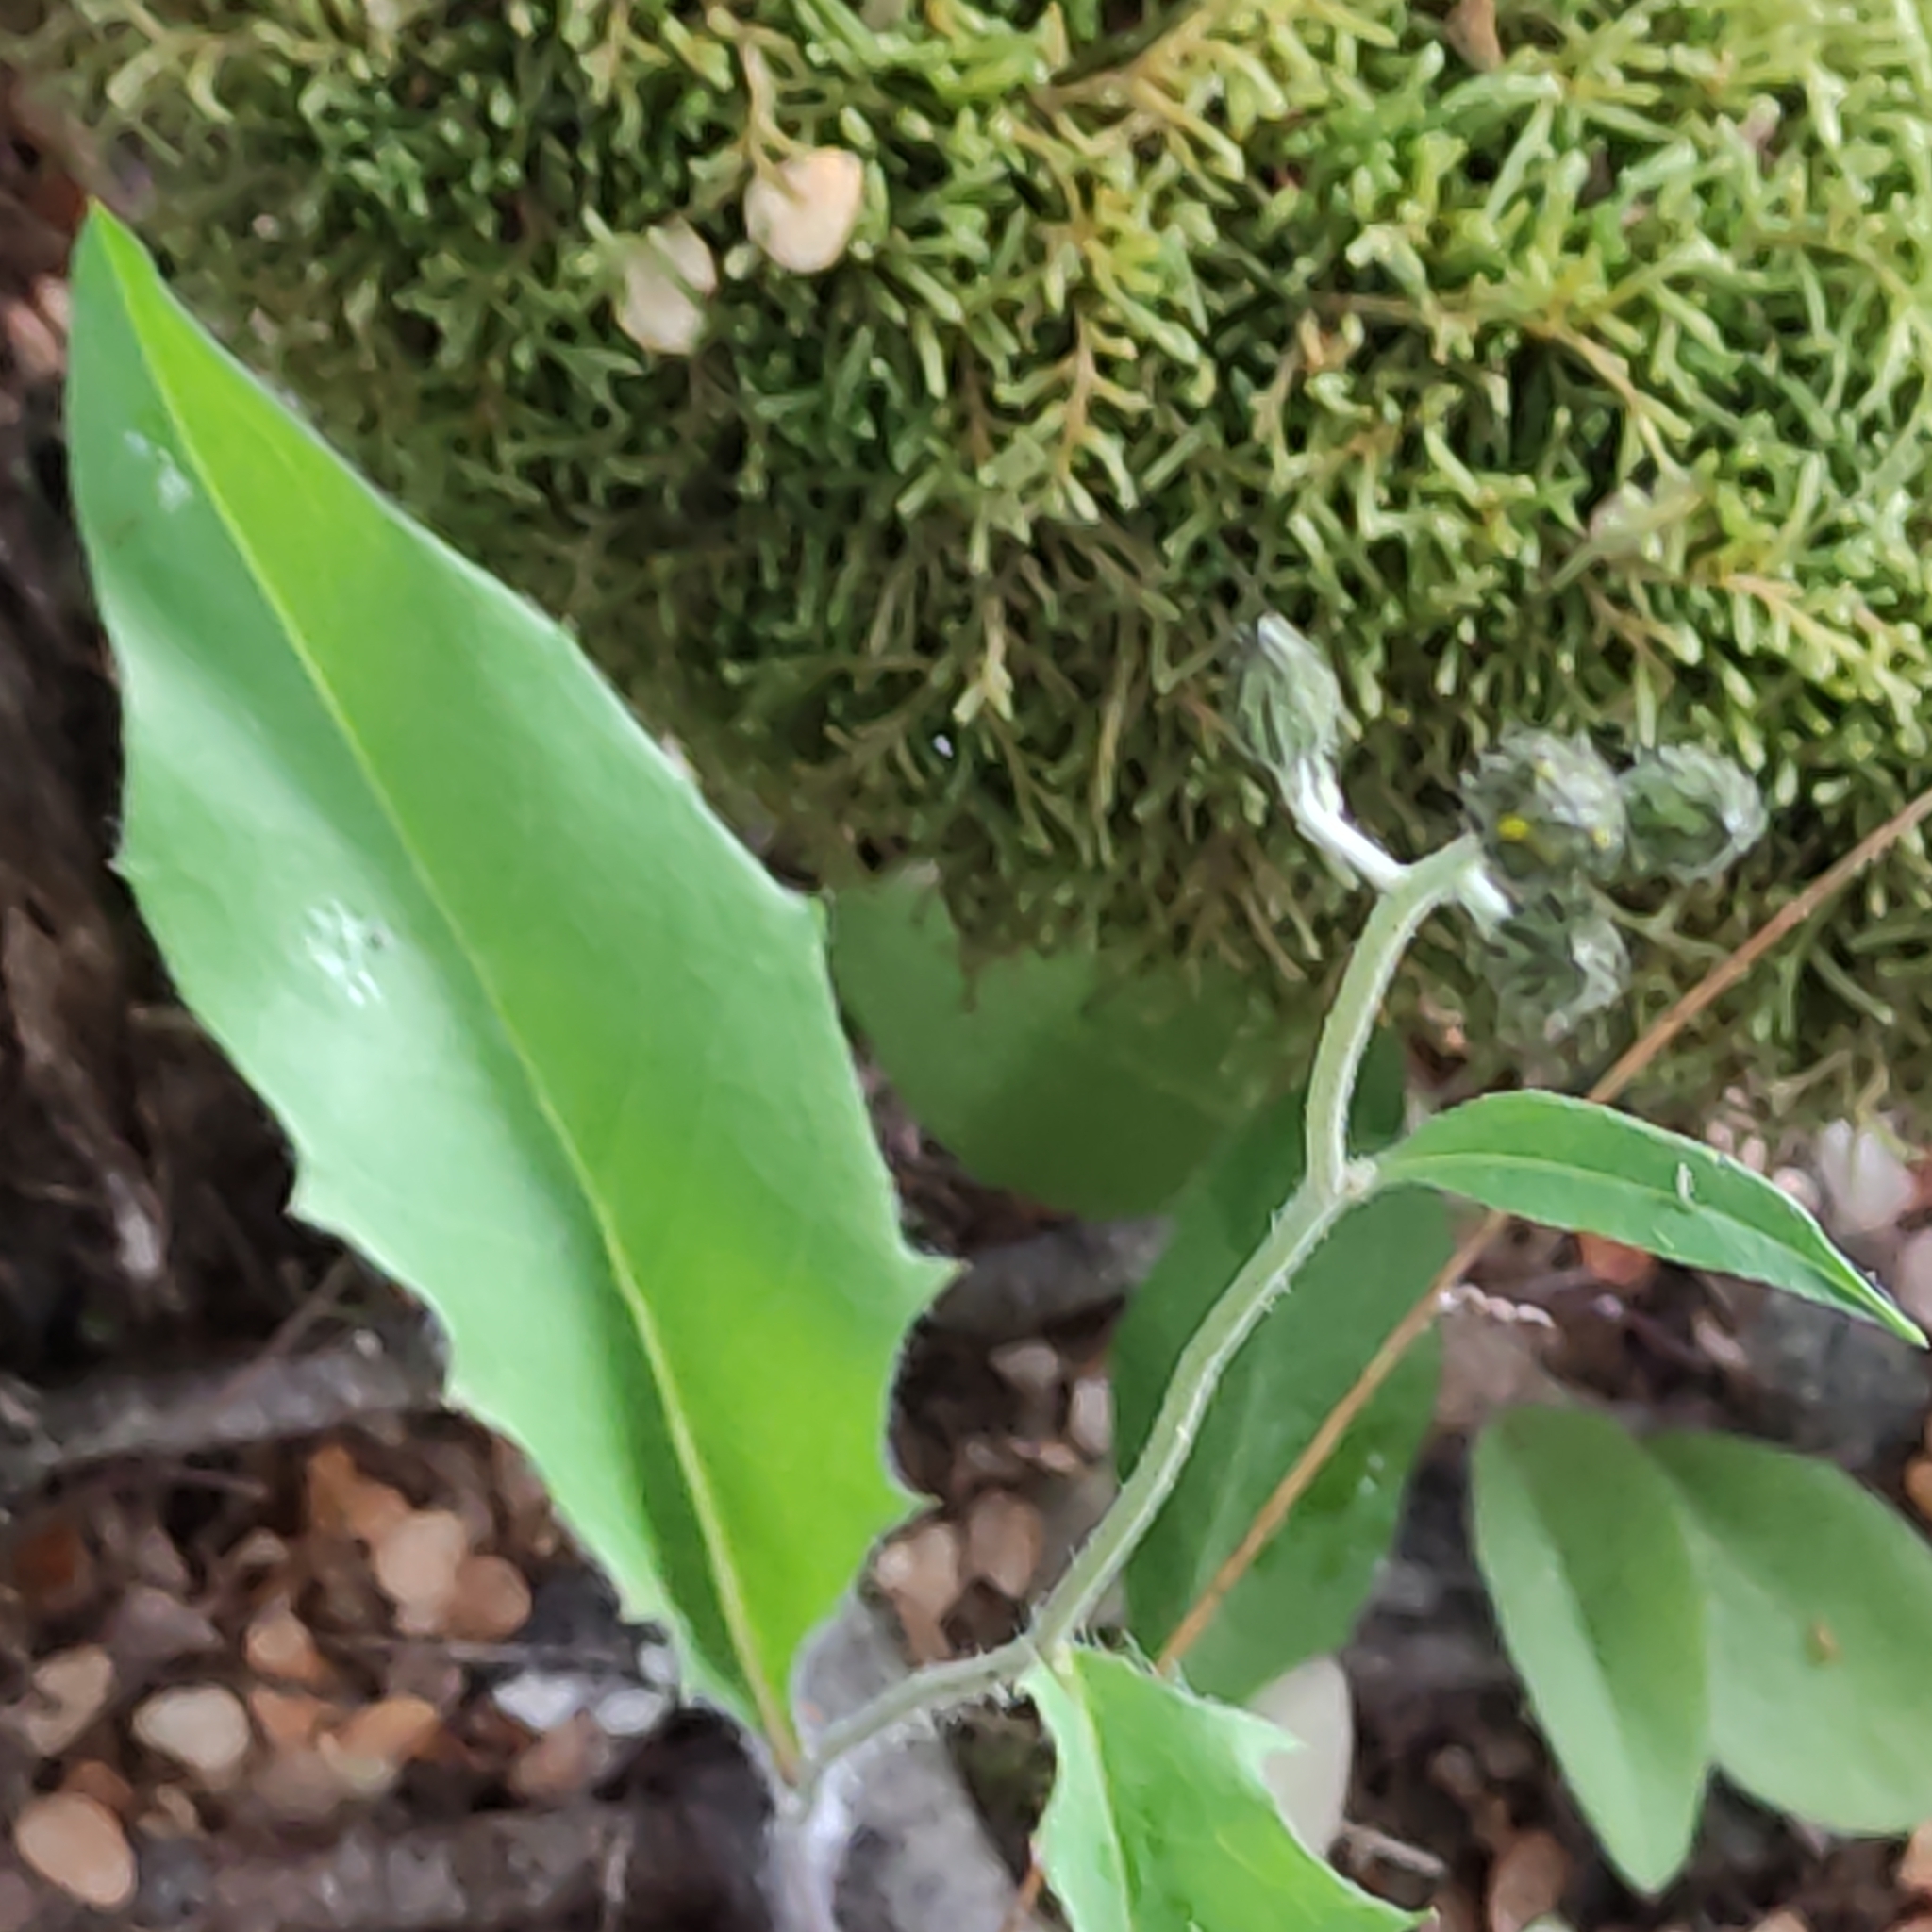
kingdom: Plantae
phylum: Tracheophyta
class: Magnoliopsida
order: Asterales
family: Asteraceae
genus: Hieracium
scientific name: Hieracium lepidulum
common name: Irregular-toothed hawkweed
